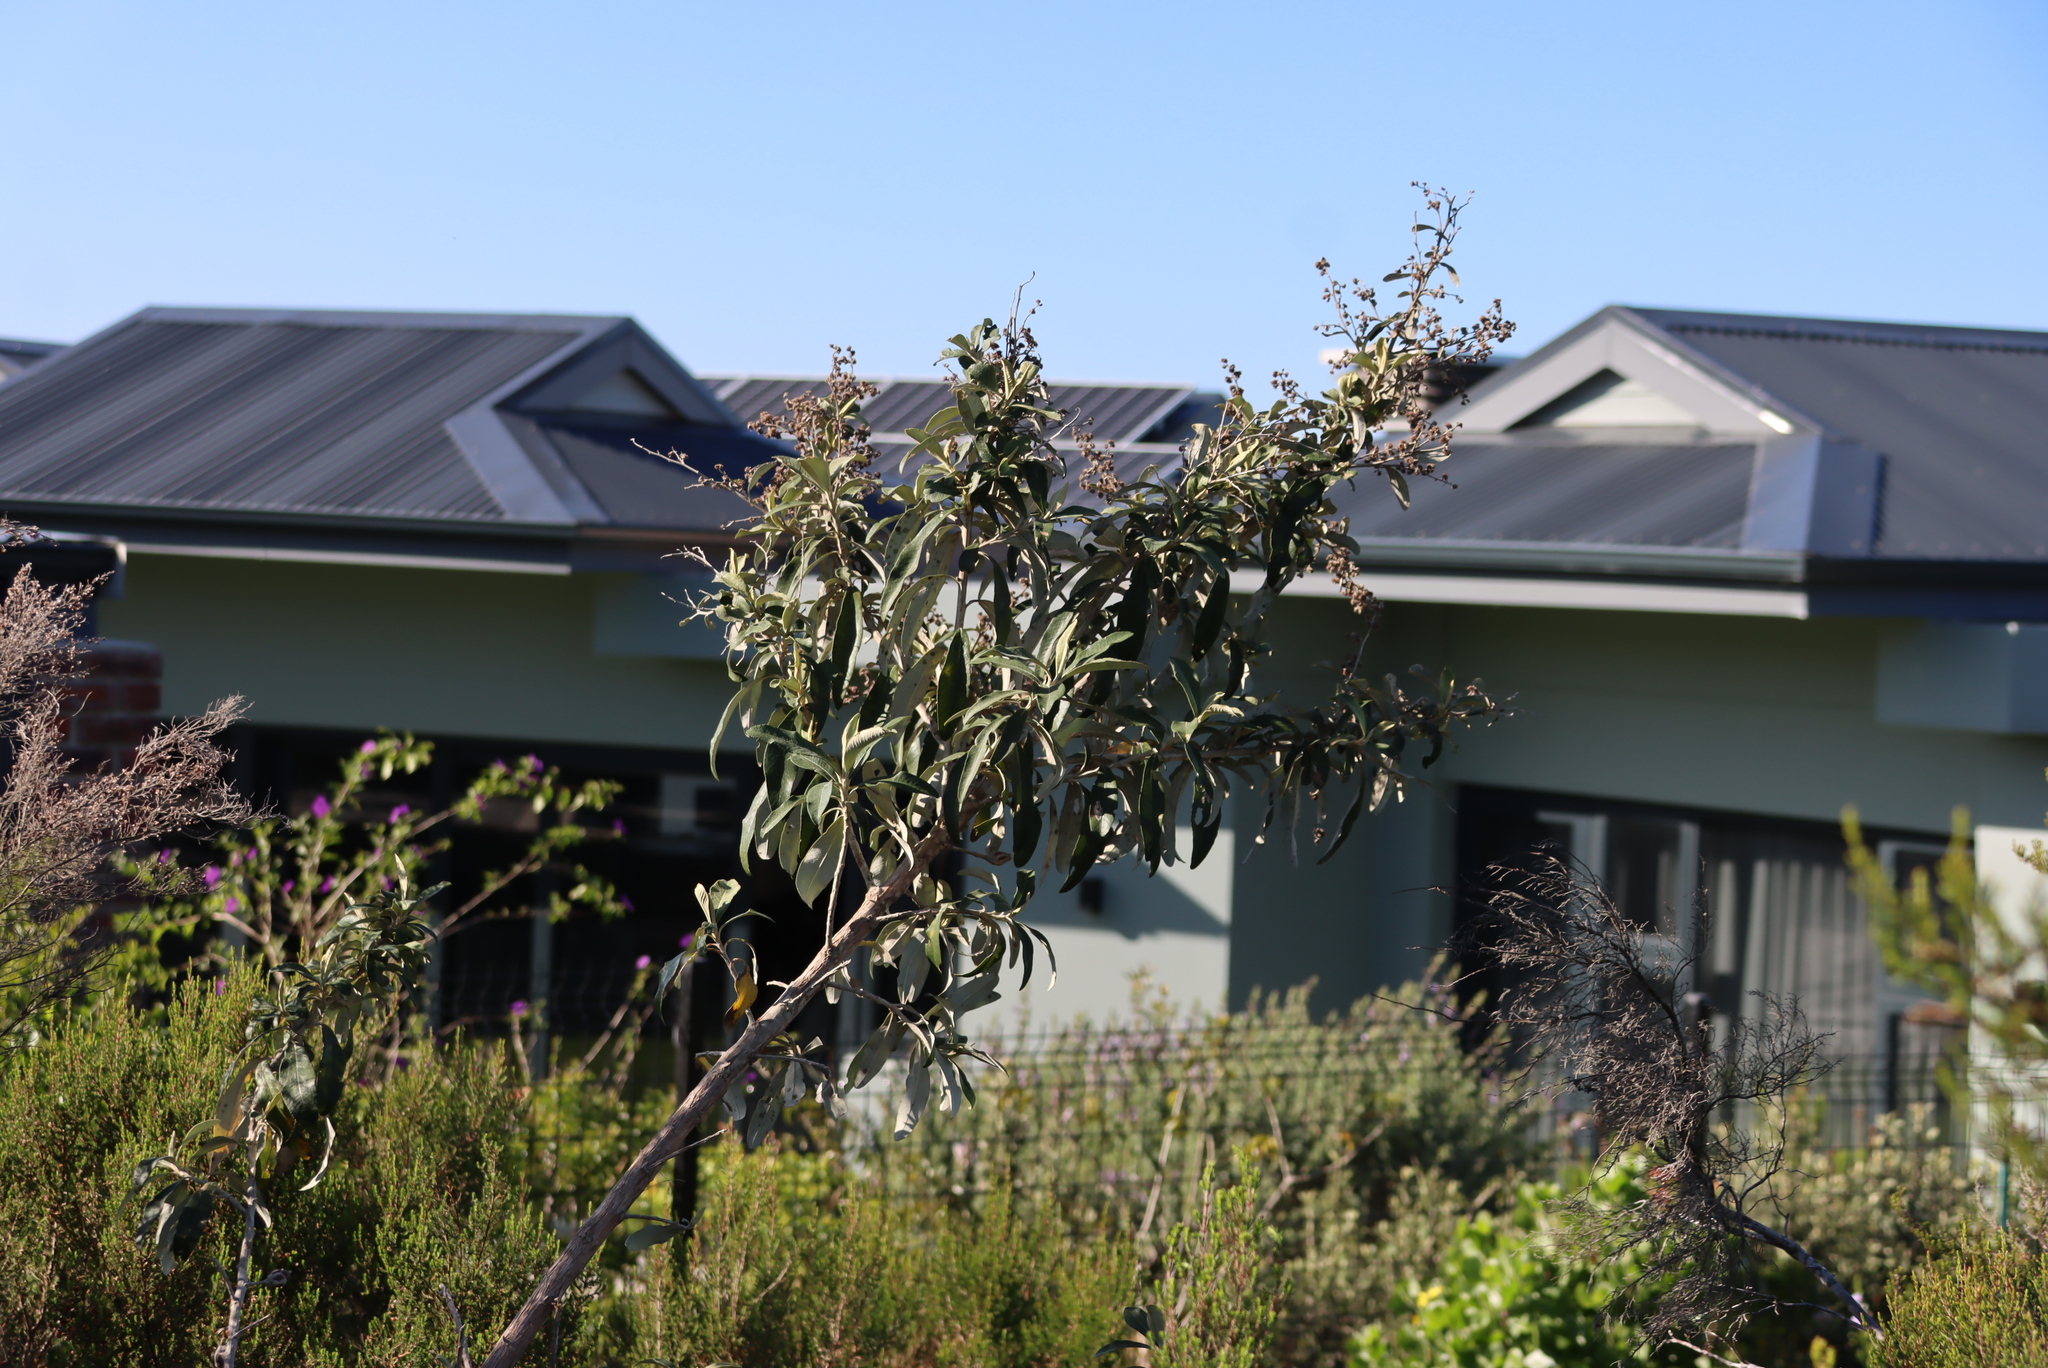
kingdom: Plantae
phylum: Tracheophyta
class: Magnoliopsida
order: Asterales
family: Asteraceae
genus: Tarchonanthus
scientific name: Tarchonanthus littoralis
